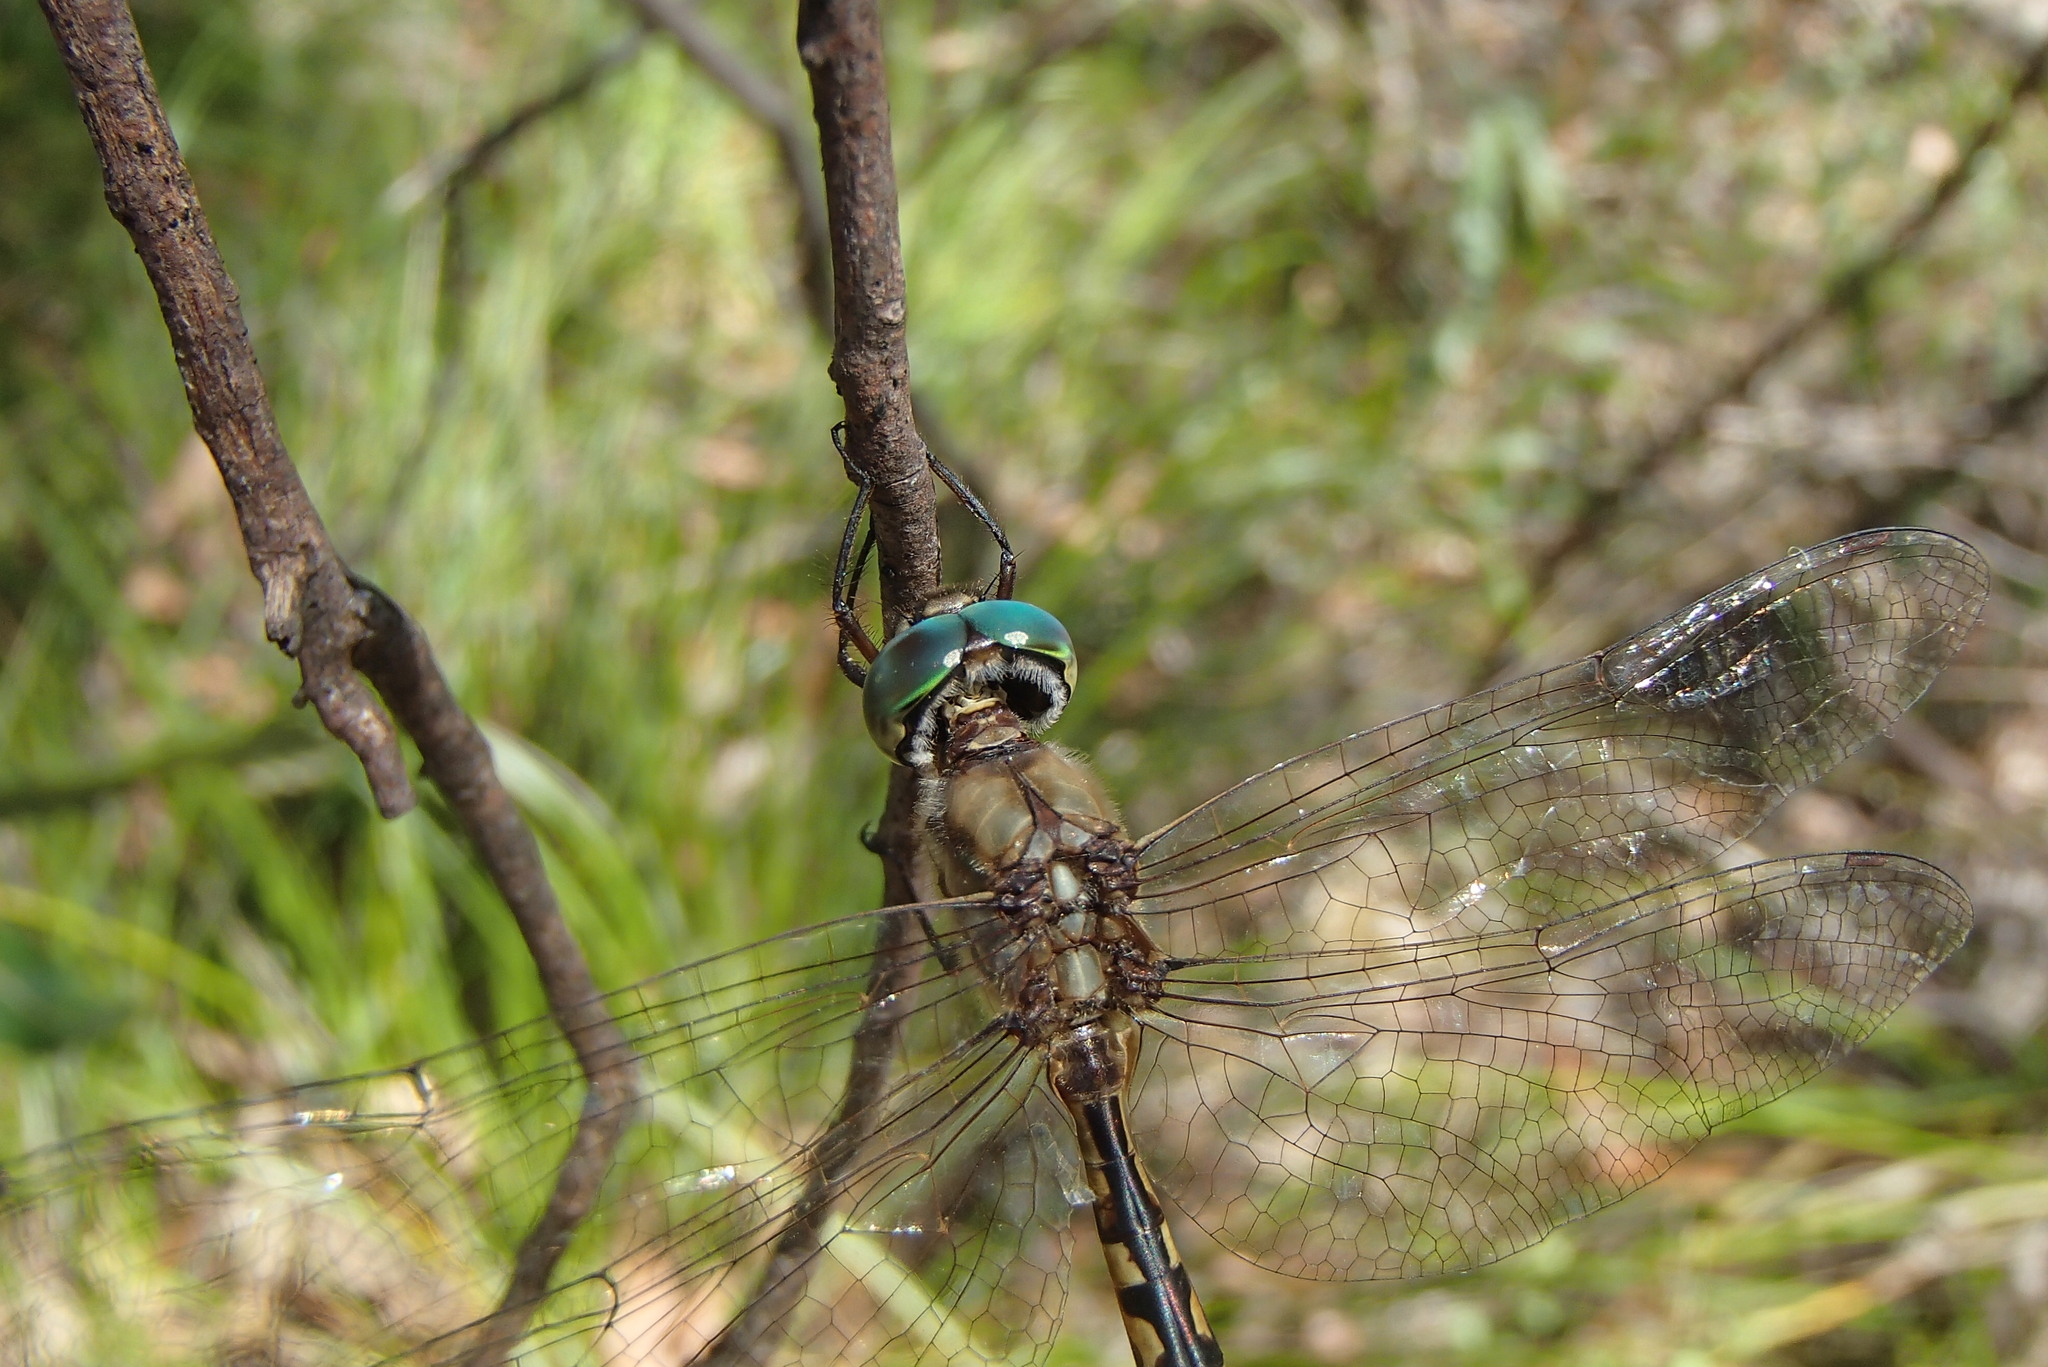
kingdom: Animalia
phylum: Arthropoda
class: Insecta
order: Odonata
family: Corduliidae
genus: Hemicordulia
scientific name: Hemicordulia australiae
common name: Sentry dragonfly
